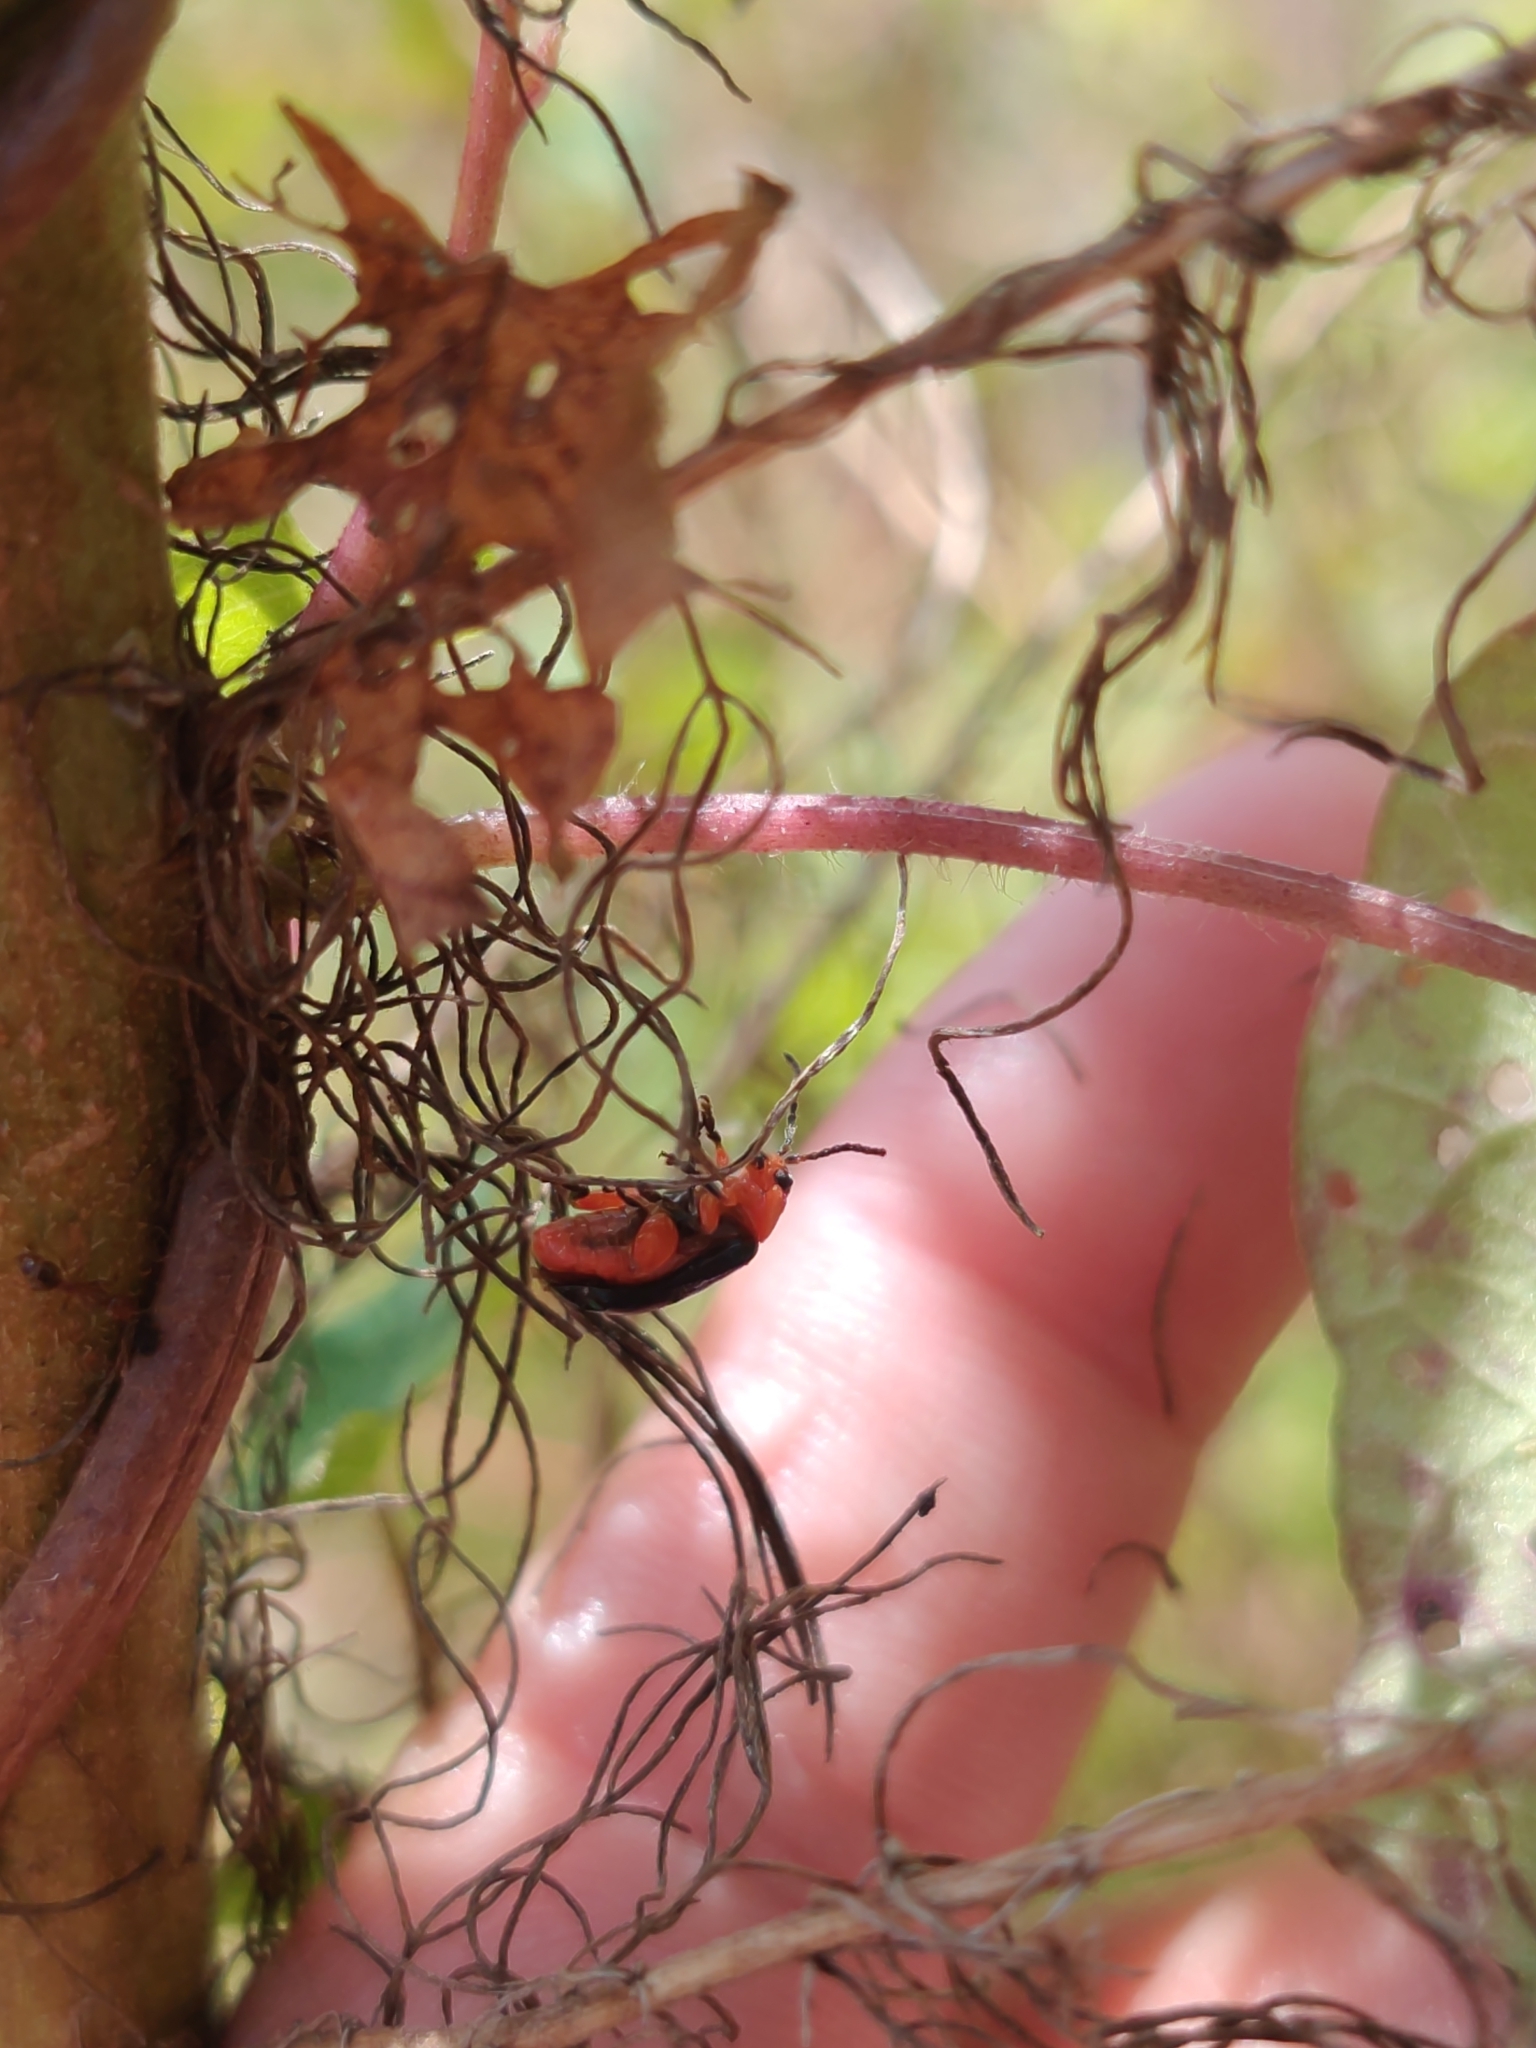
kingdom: Animalia
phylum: Arthropoda
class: Insecta
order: Coleoptera
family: Chrysomelidae
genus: Asphaera
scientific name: Asphaera lustrans
